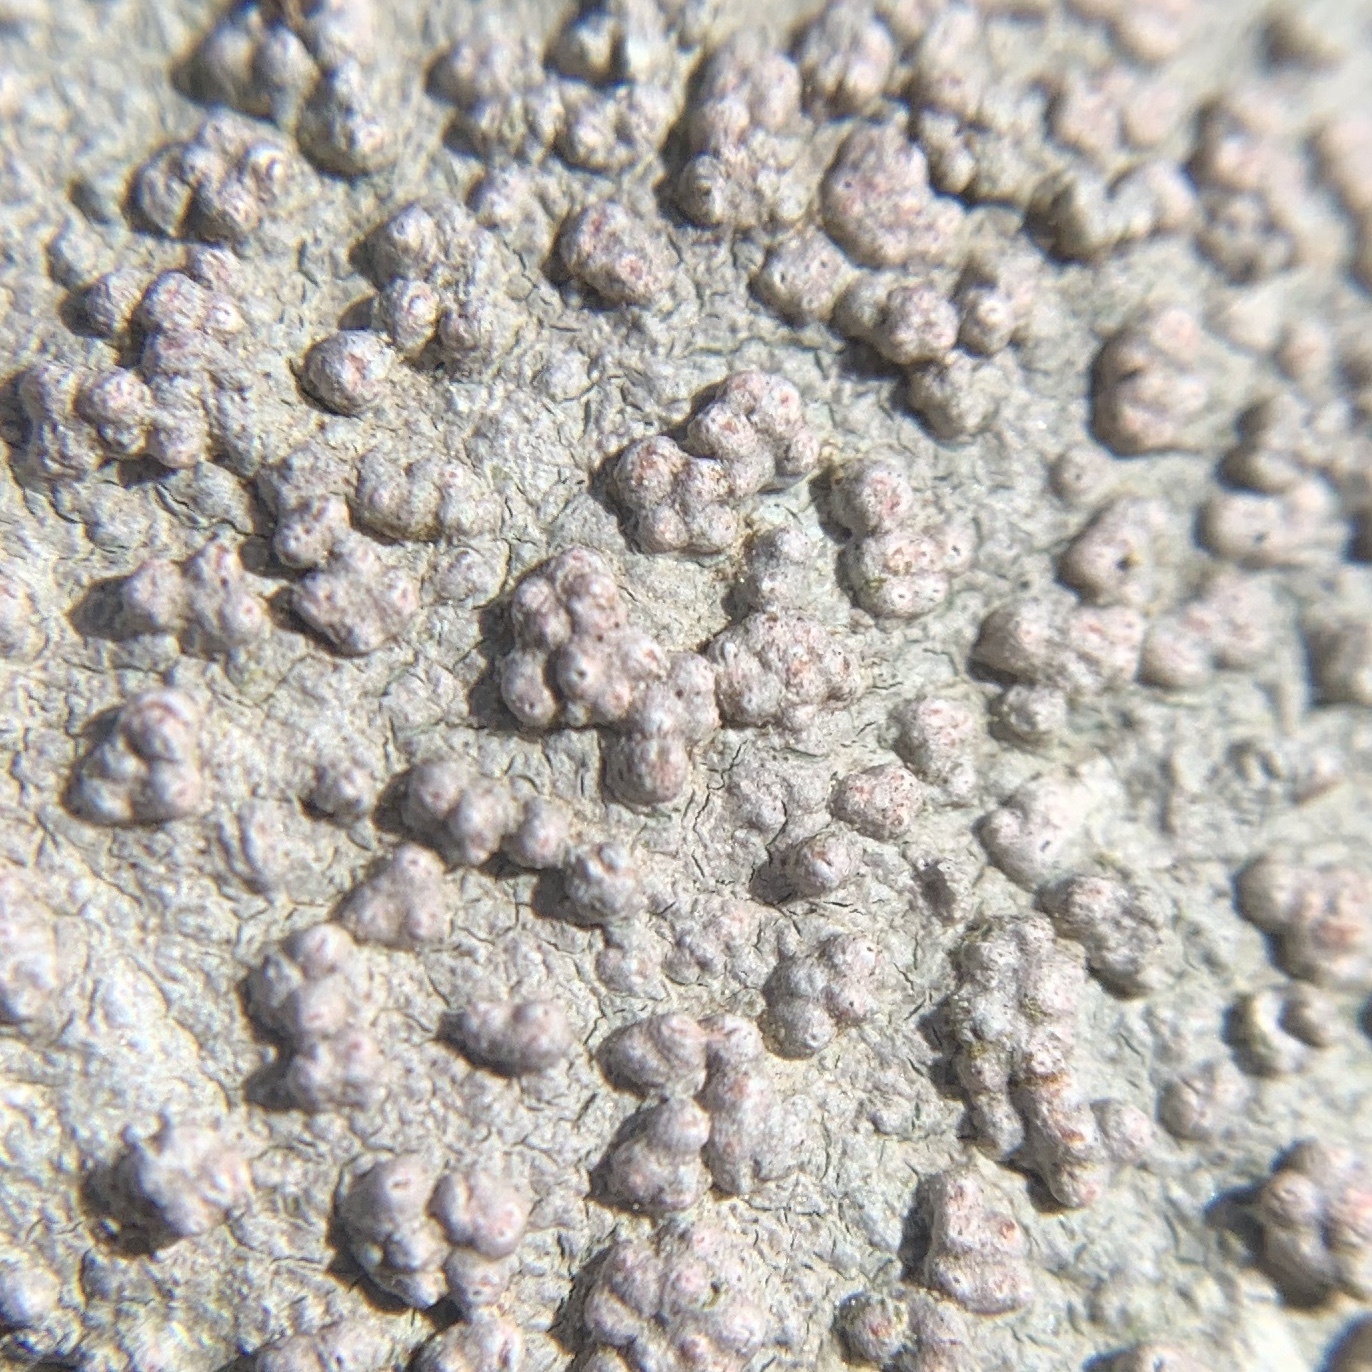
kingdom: Fungi
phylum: Ascomycota
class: Lecanoromycetes
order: Pertusariales
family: Pertusariaceae
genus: Pertusaria
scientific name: Pertusaria plittiana
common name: Rock wart lichen
